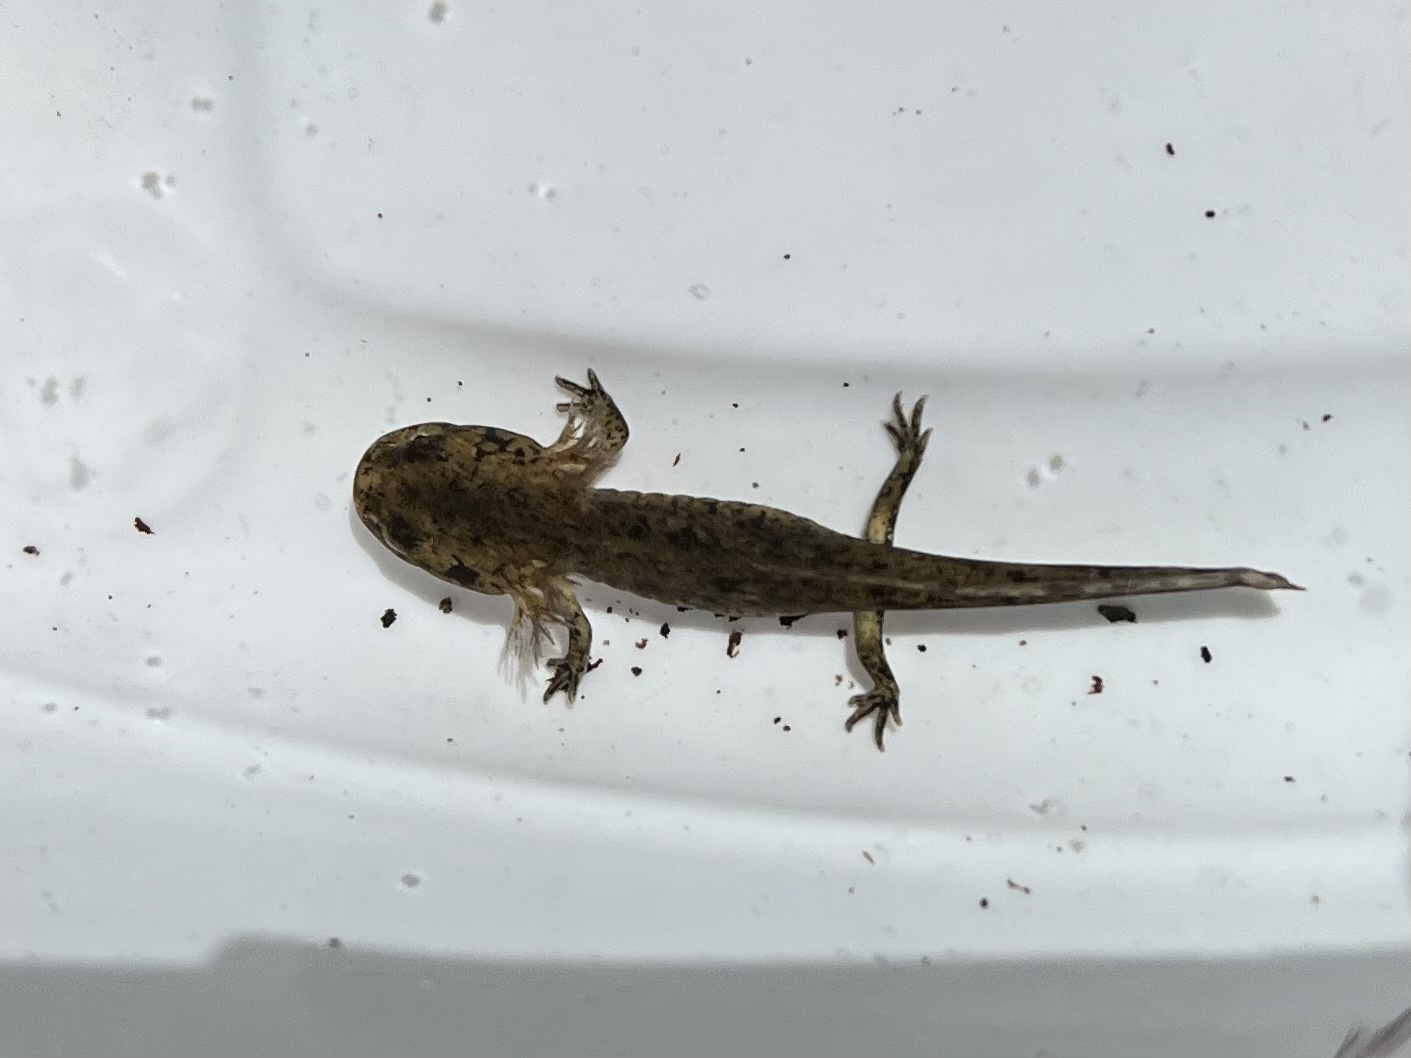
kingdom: Animalia
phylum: Chordata
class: Amphibia
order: Caudata
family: Salamandridae
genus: Salamandra
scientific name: Salamandra salamandra
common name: Fire salamander
